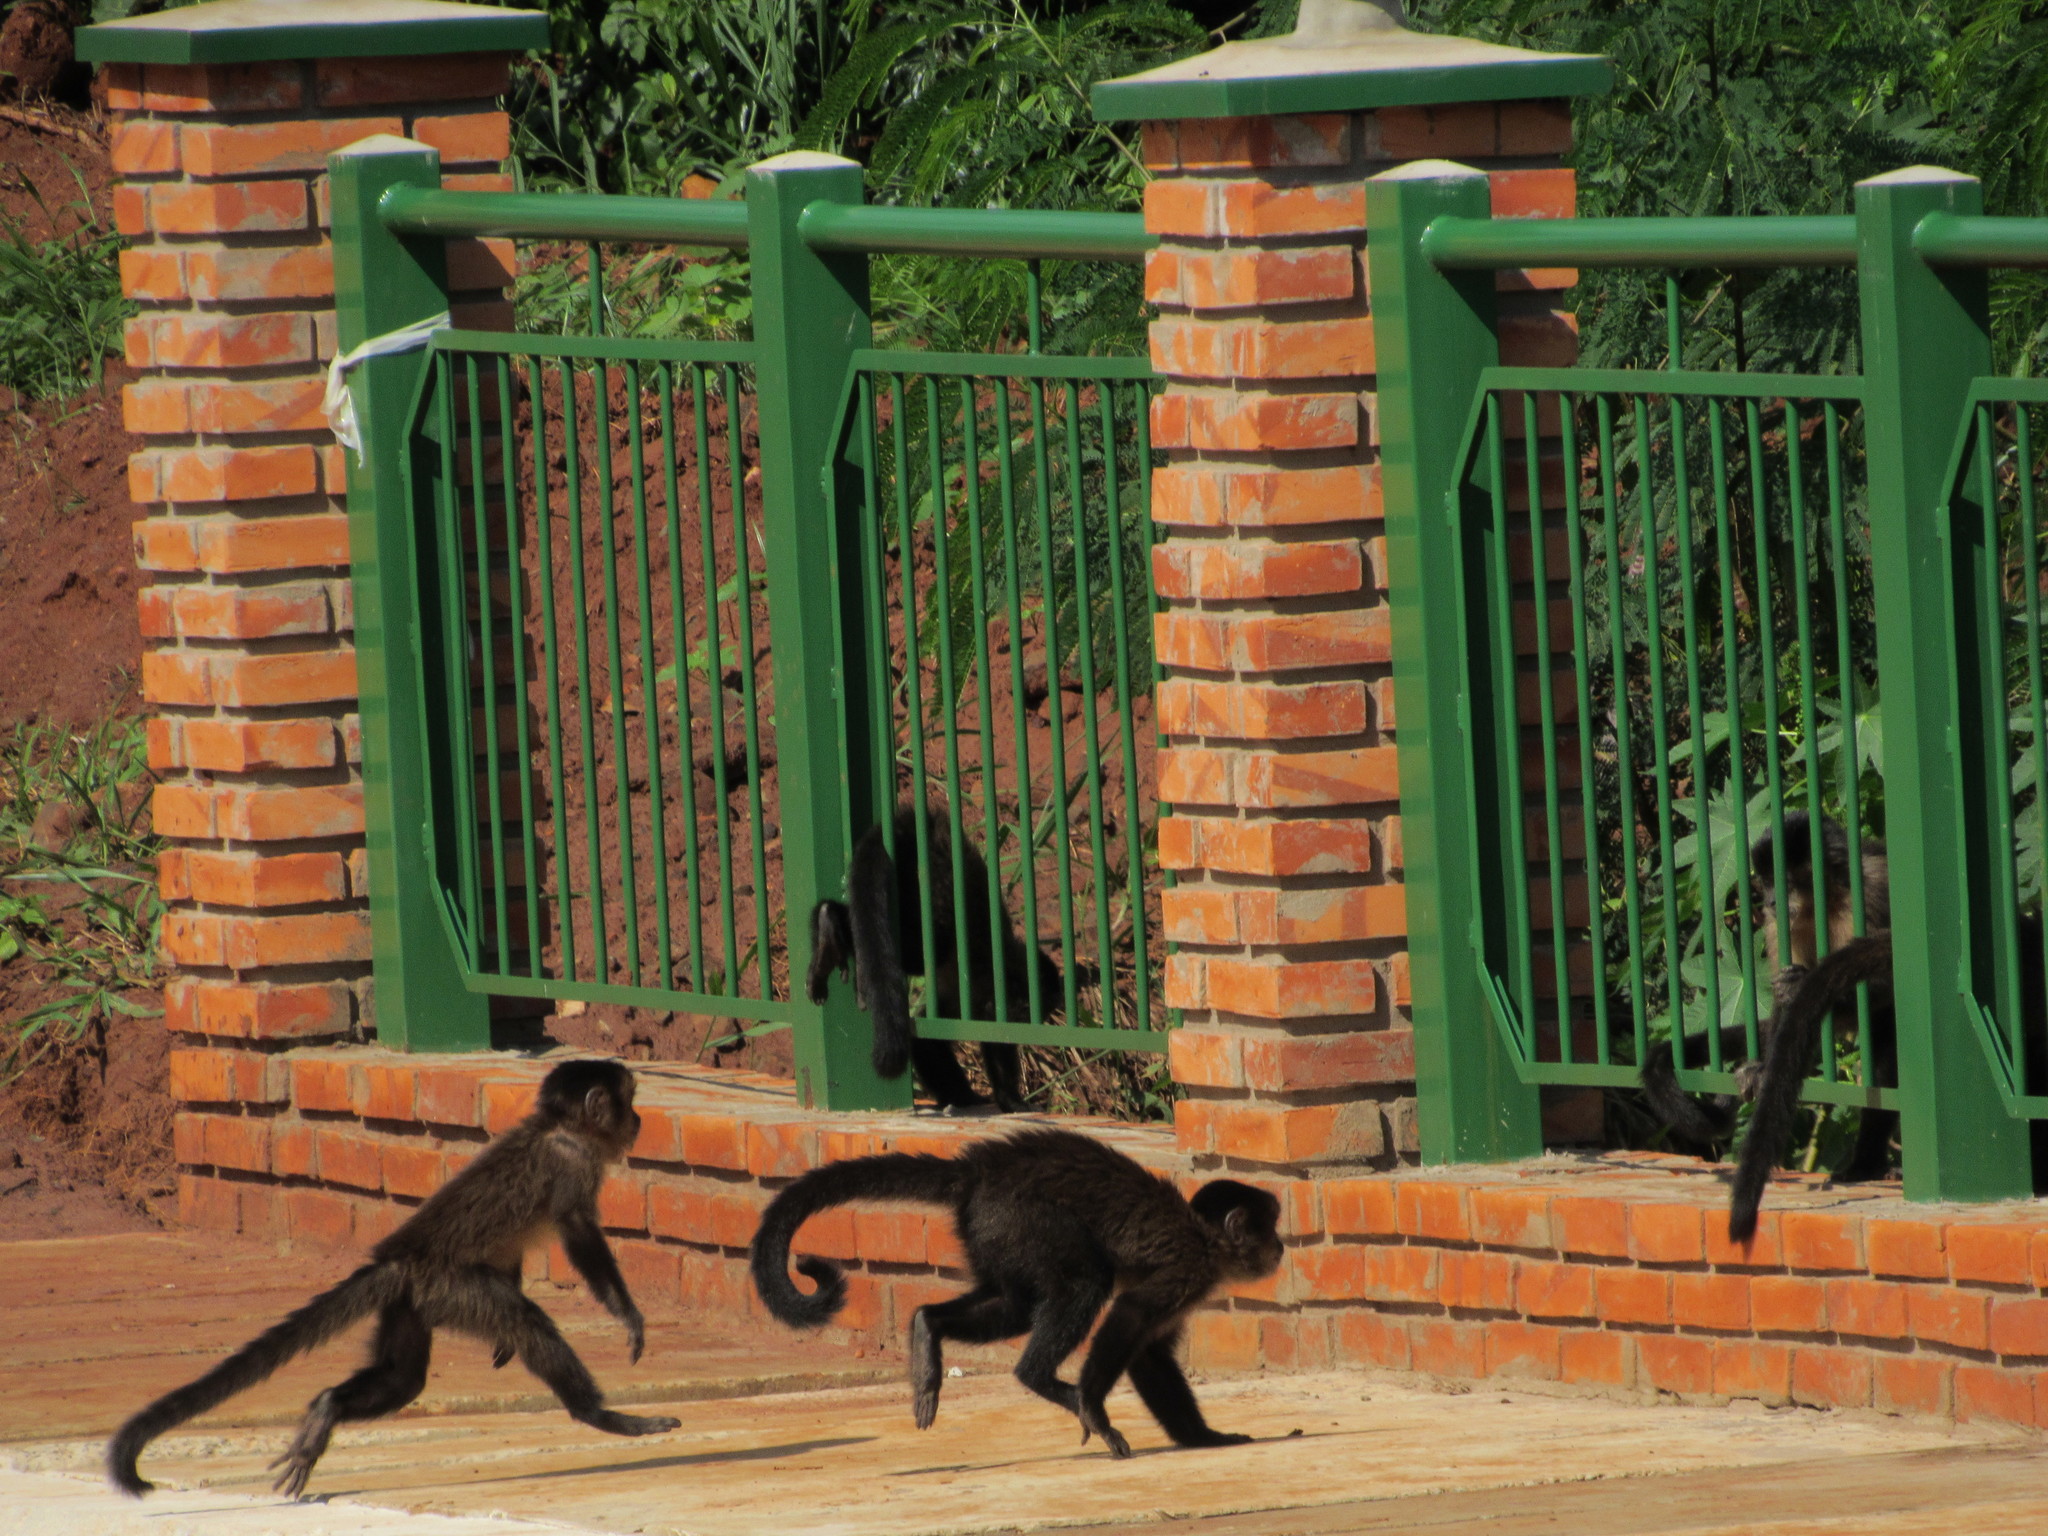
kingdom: Animalia
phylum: Chordata
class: Mammalia
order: Primates
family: Cebidae
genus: Sapajus
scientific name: Sapajus nigritus
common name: Black capuchin
